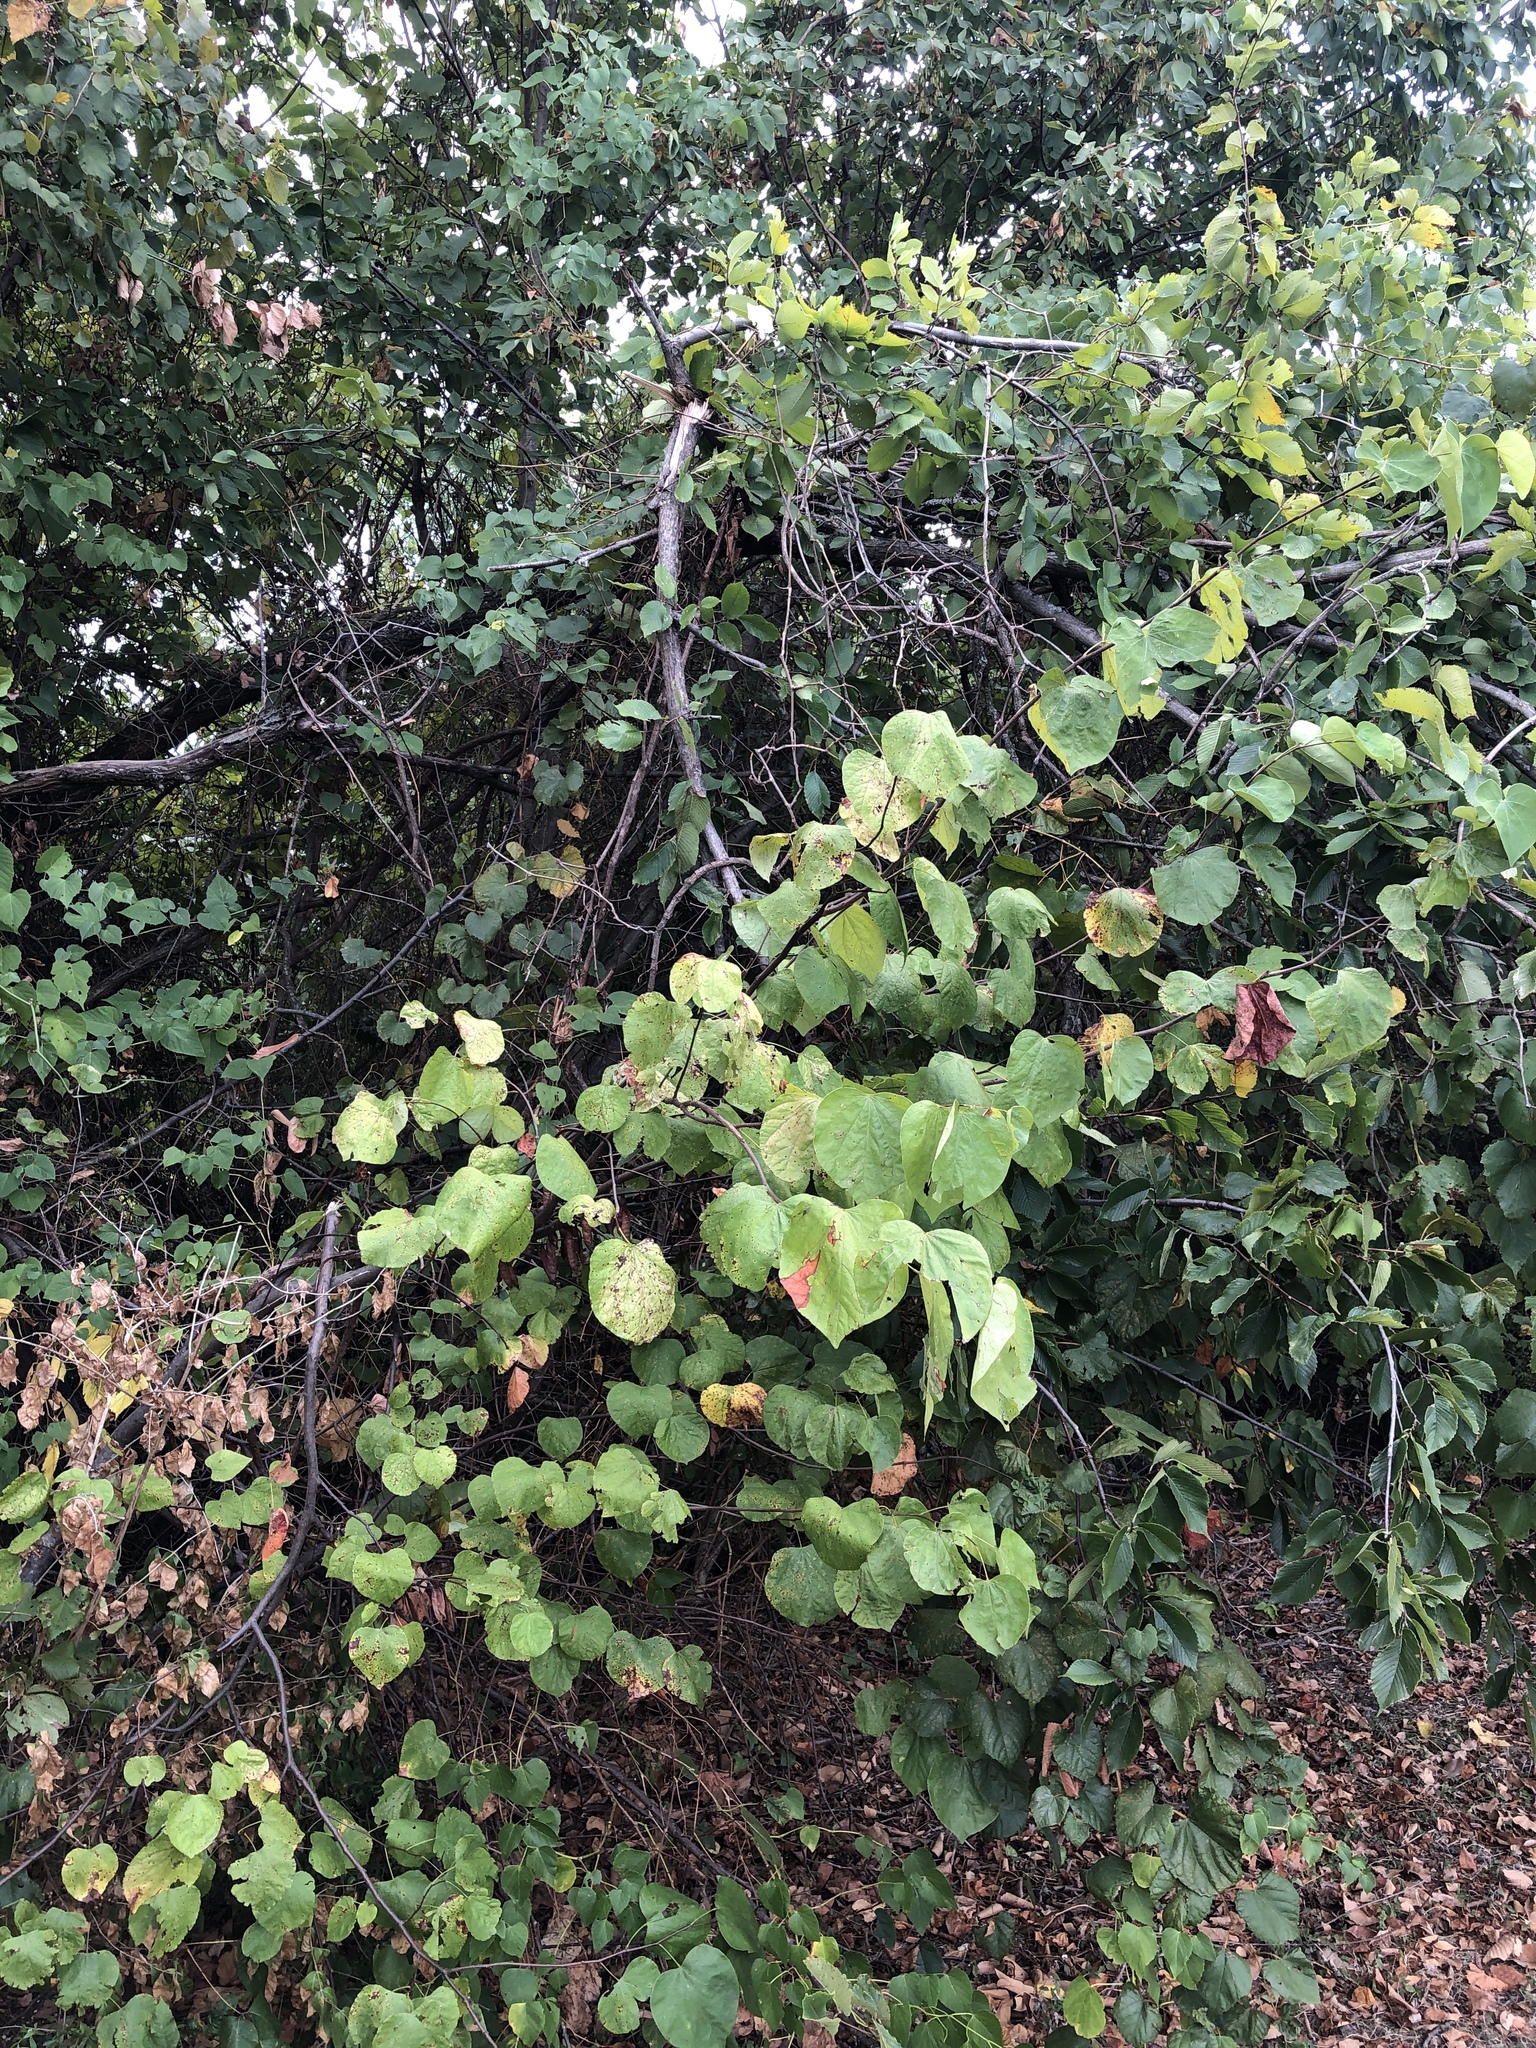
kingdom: Plantae
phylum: Tracheophyta
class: Magnoliopsida
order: Fabales
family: Fabaceae
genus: Cercis
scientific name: Cercis canadensis
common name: Eastern redbud
